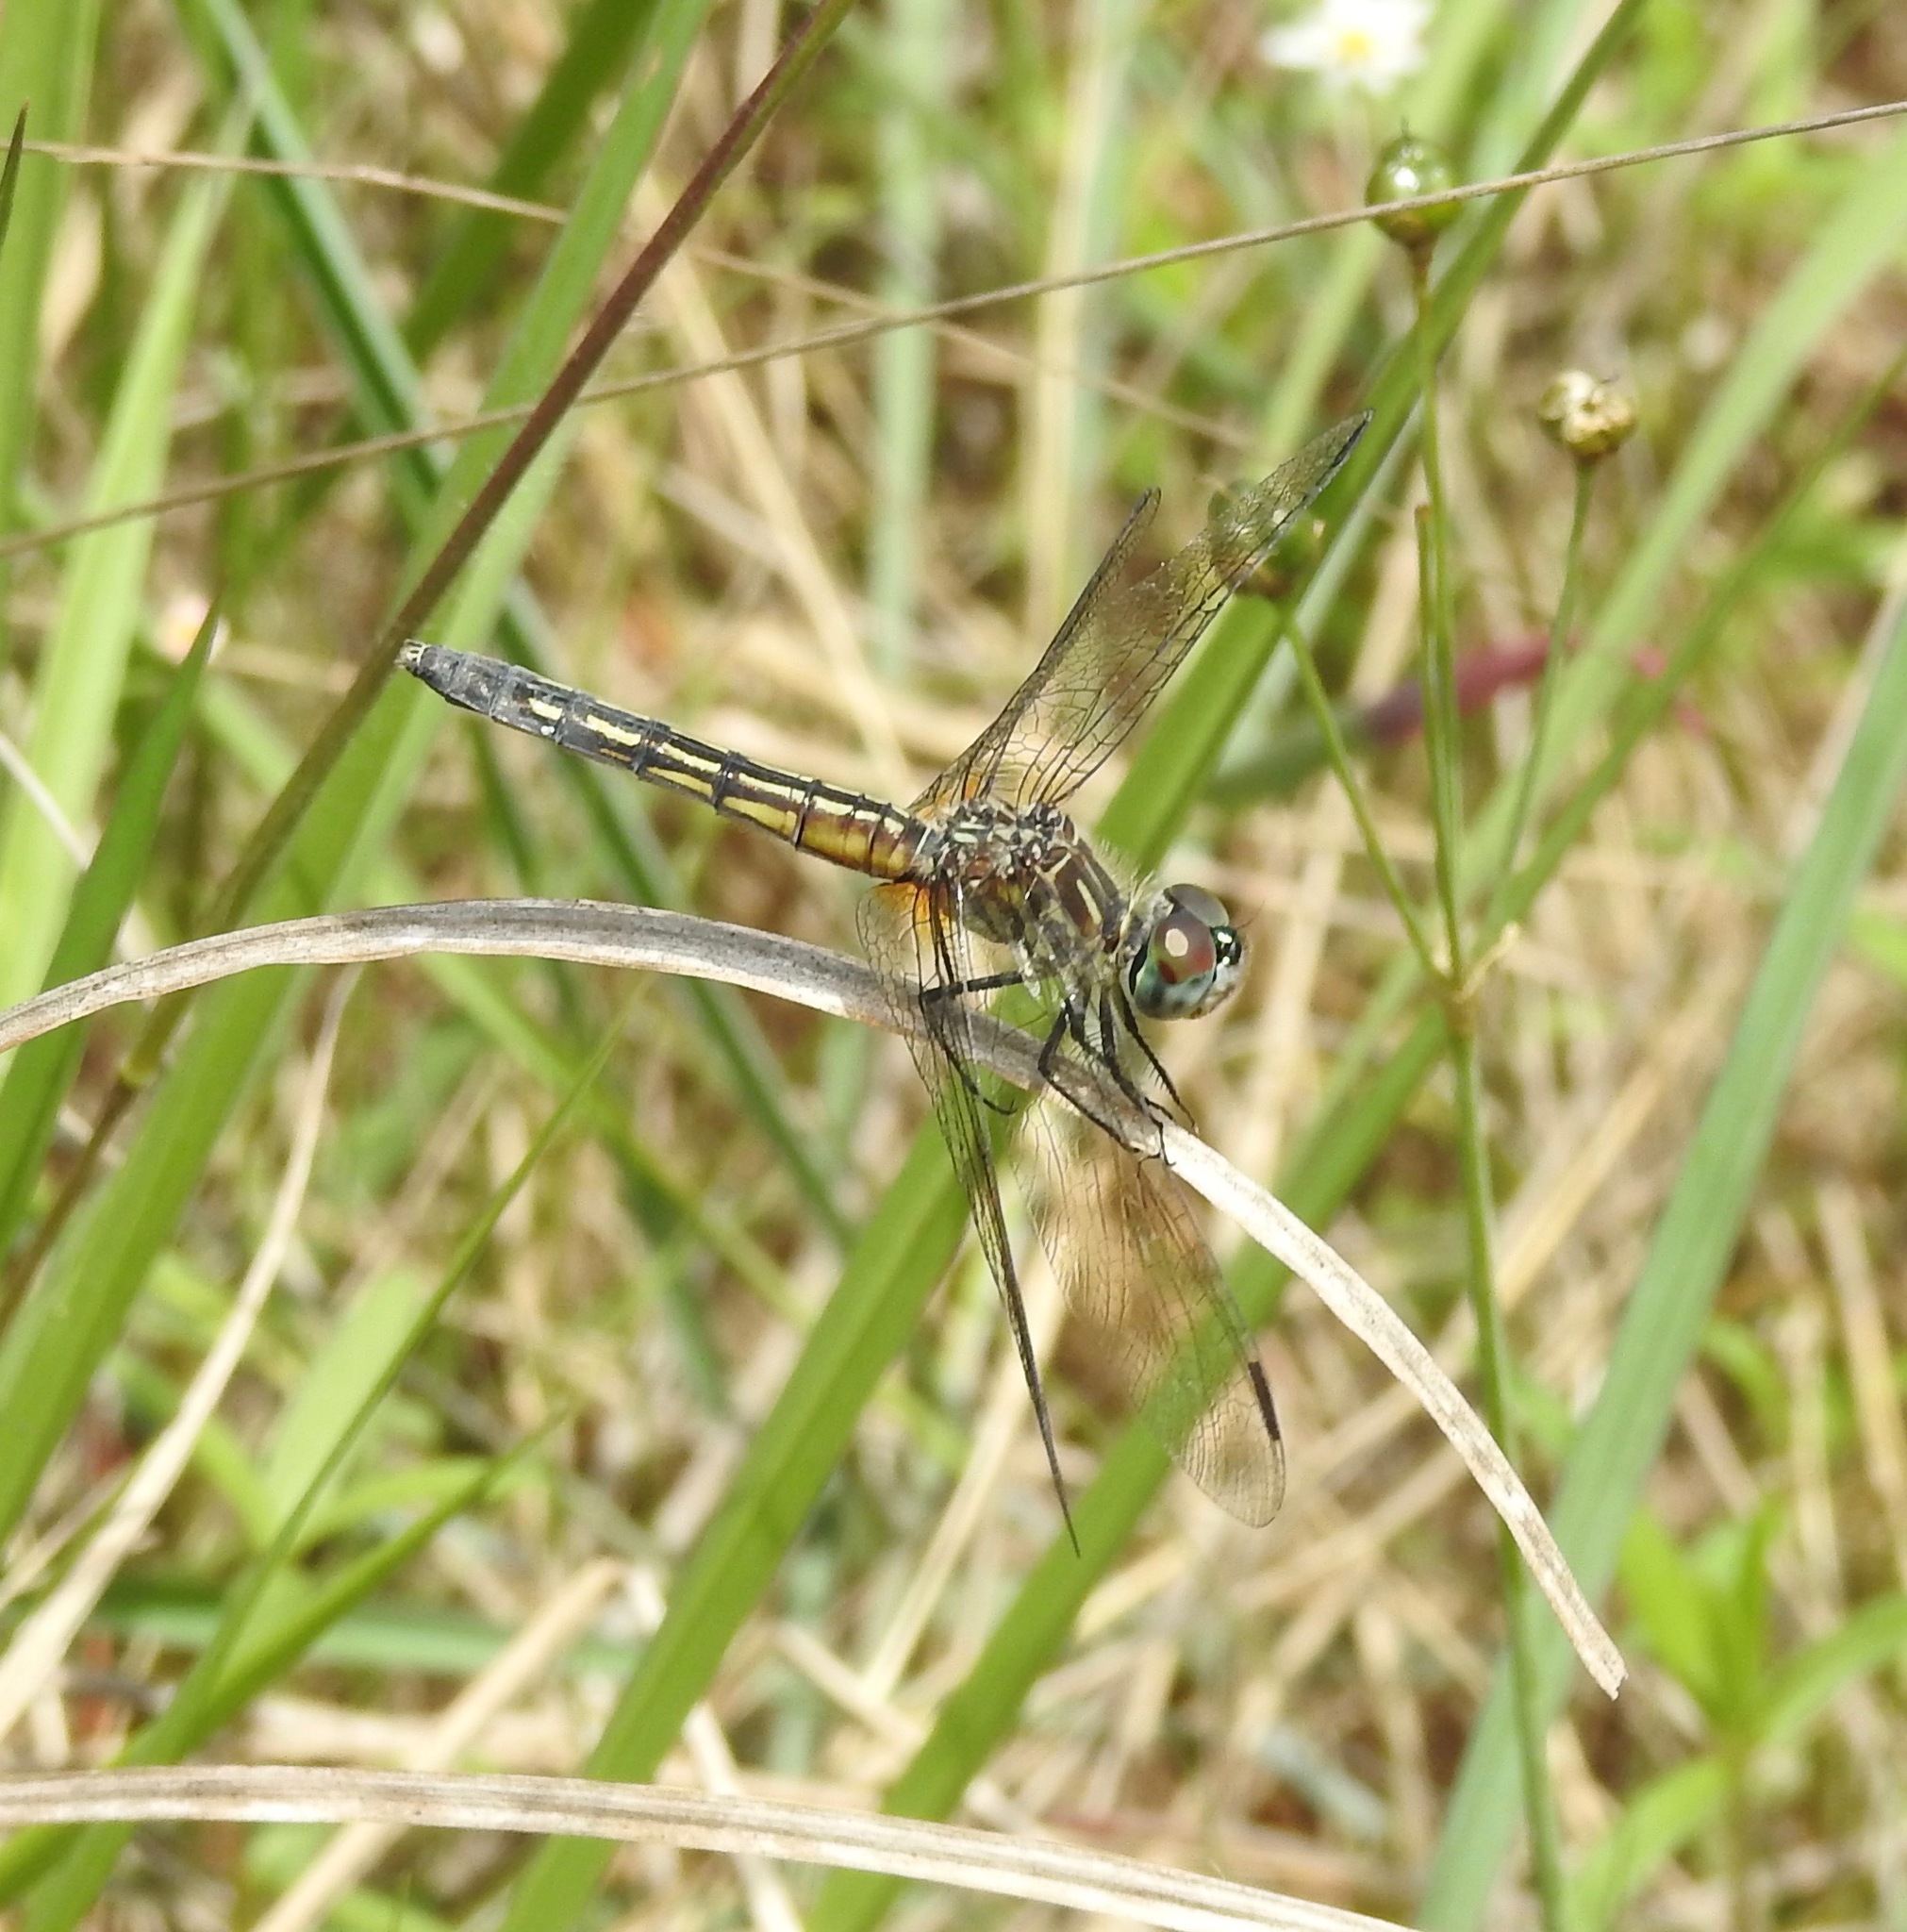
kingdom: Animalia
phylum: Arthropoda
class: Insecta
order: Odonata
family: Libellulidae
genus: Pachydiplax
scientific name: Pachydiplax longipennis
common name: Blue dasher
